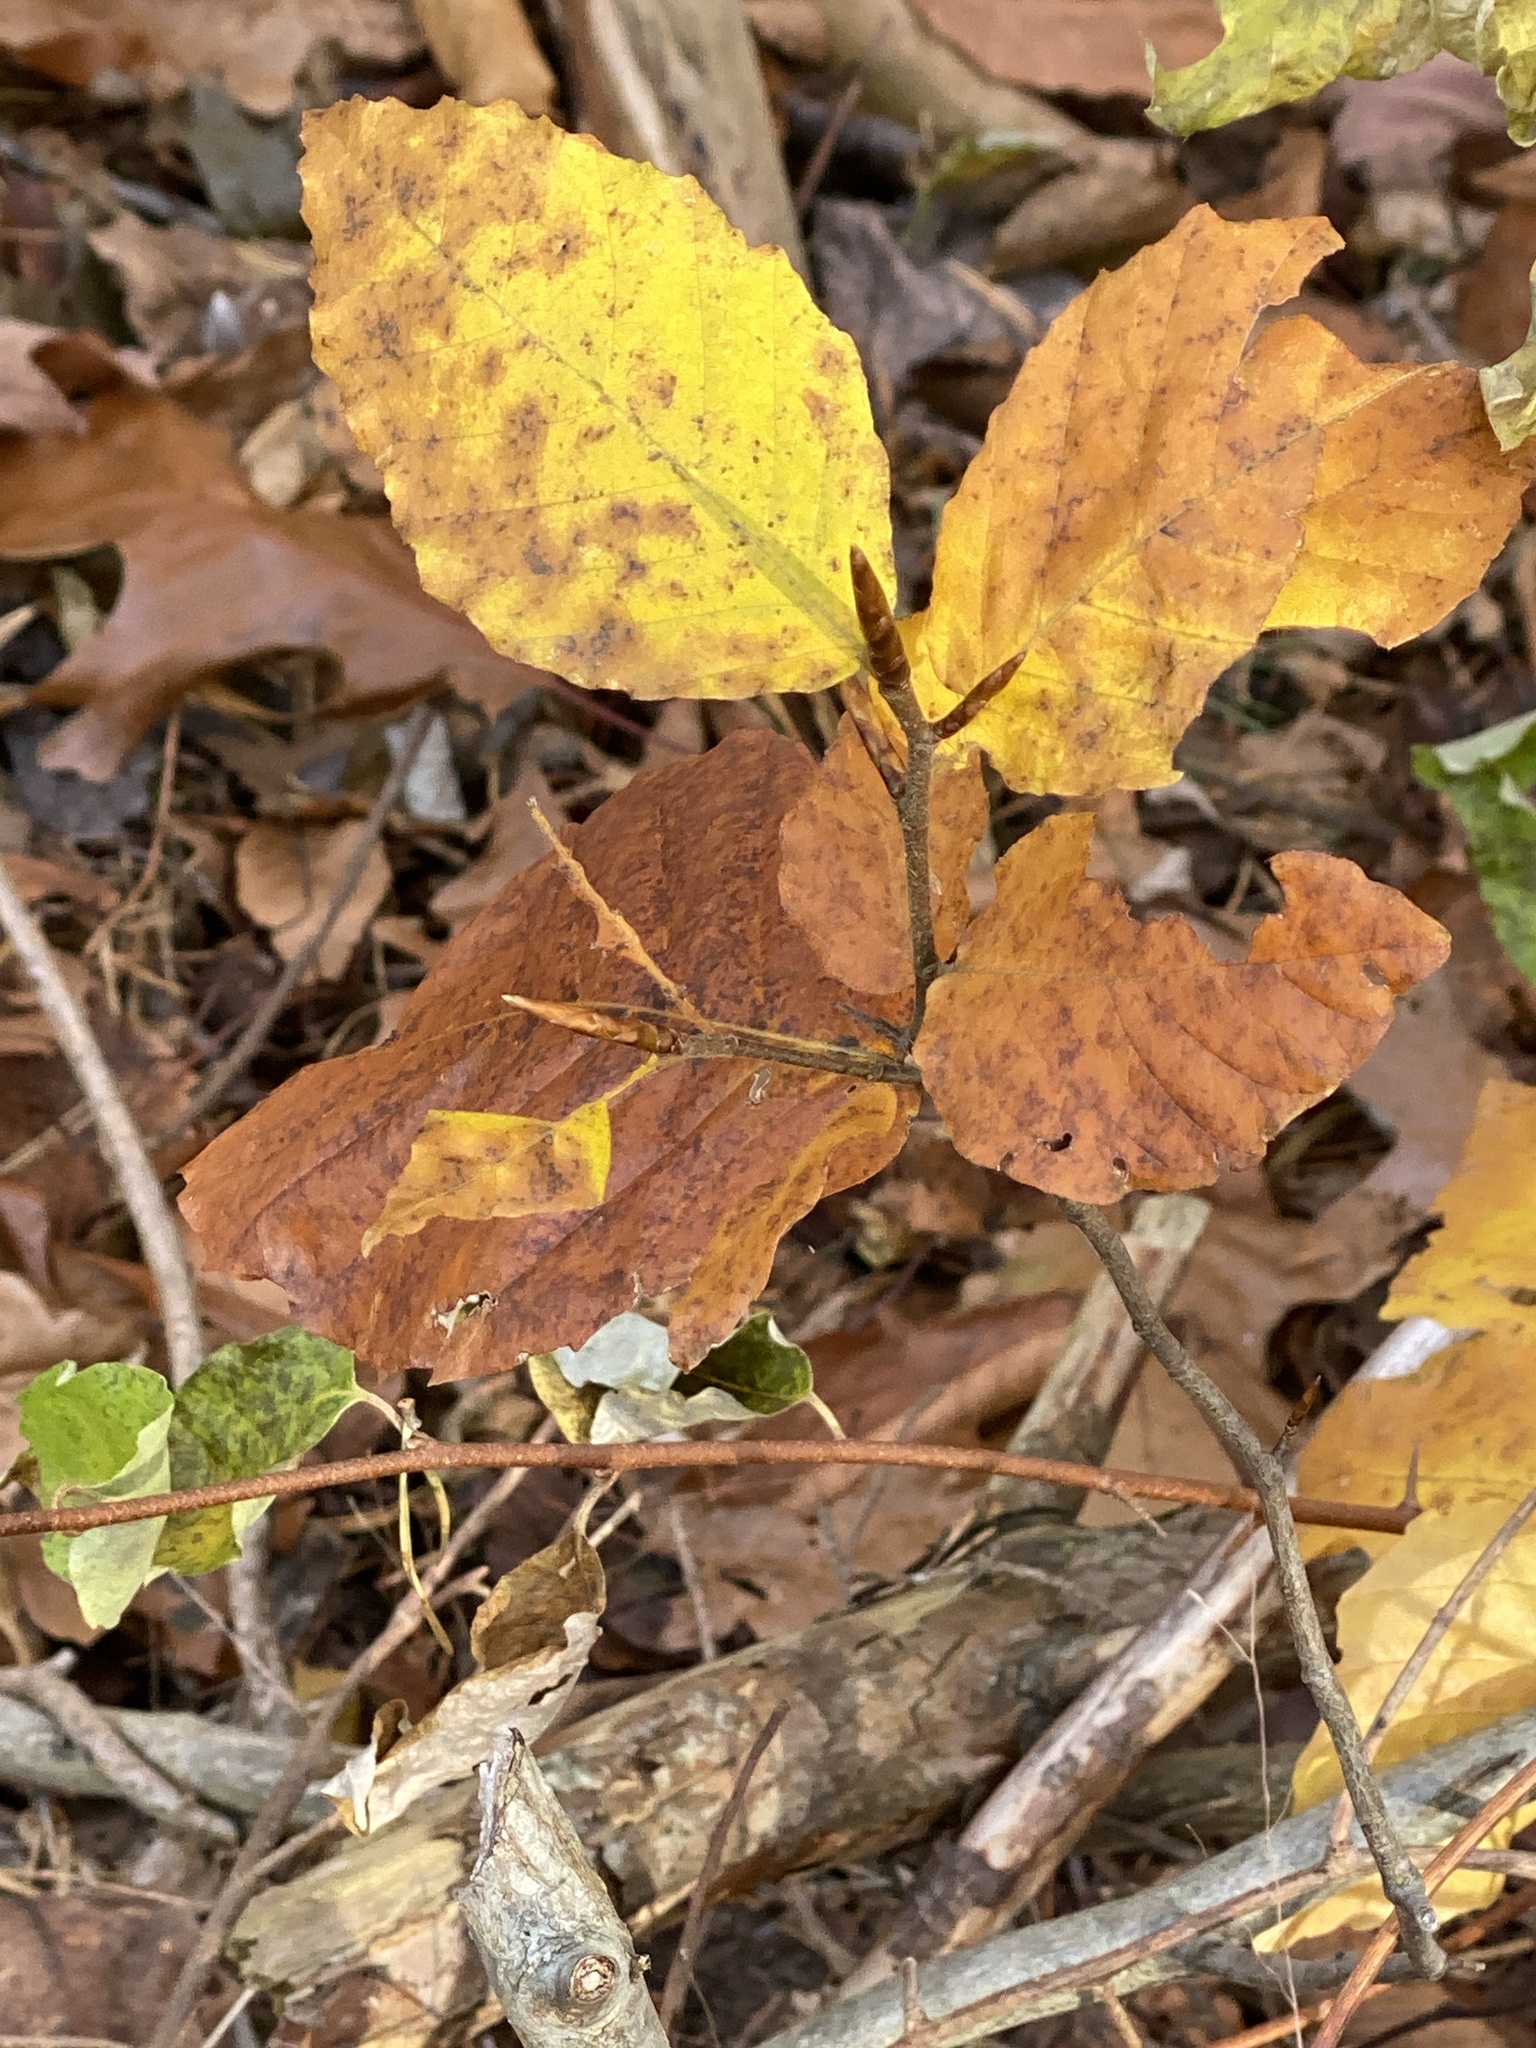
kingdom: Plantae
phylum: Tracheophyta
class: Magnoliopsida
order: Fagales
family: Fagaceae
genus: Fagus
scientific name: Fagus grandifolia
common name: American beech
